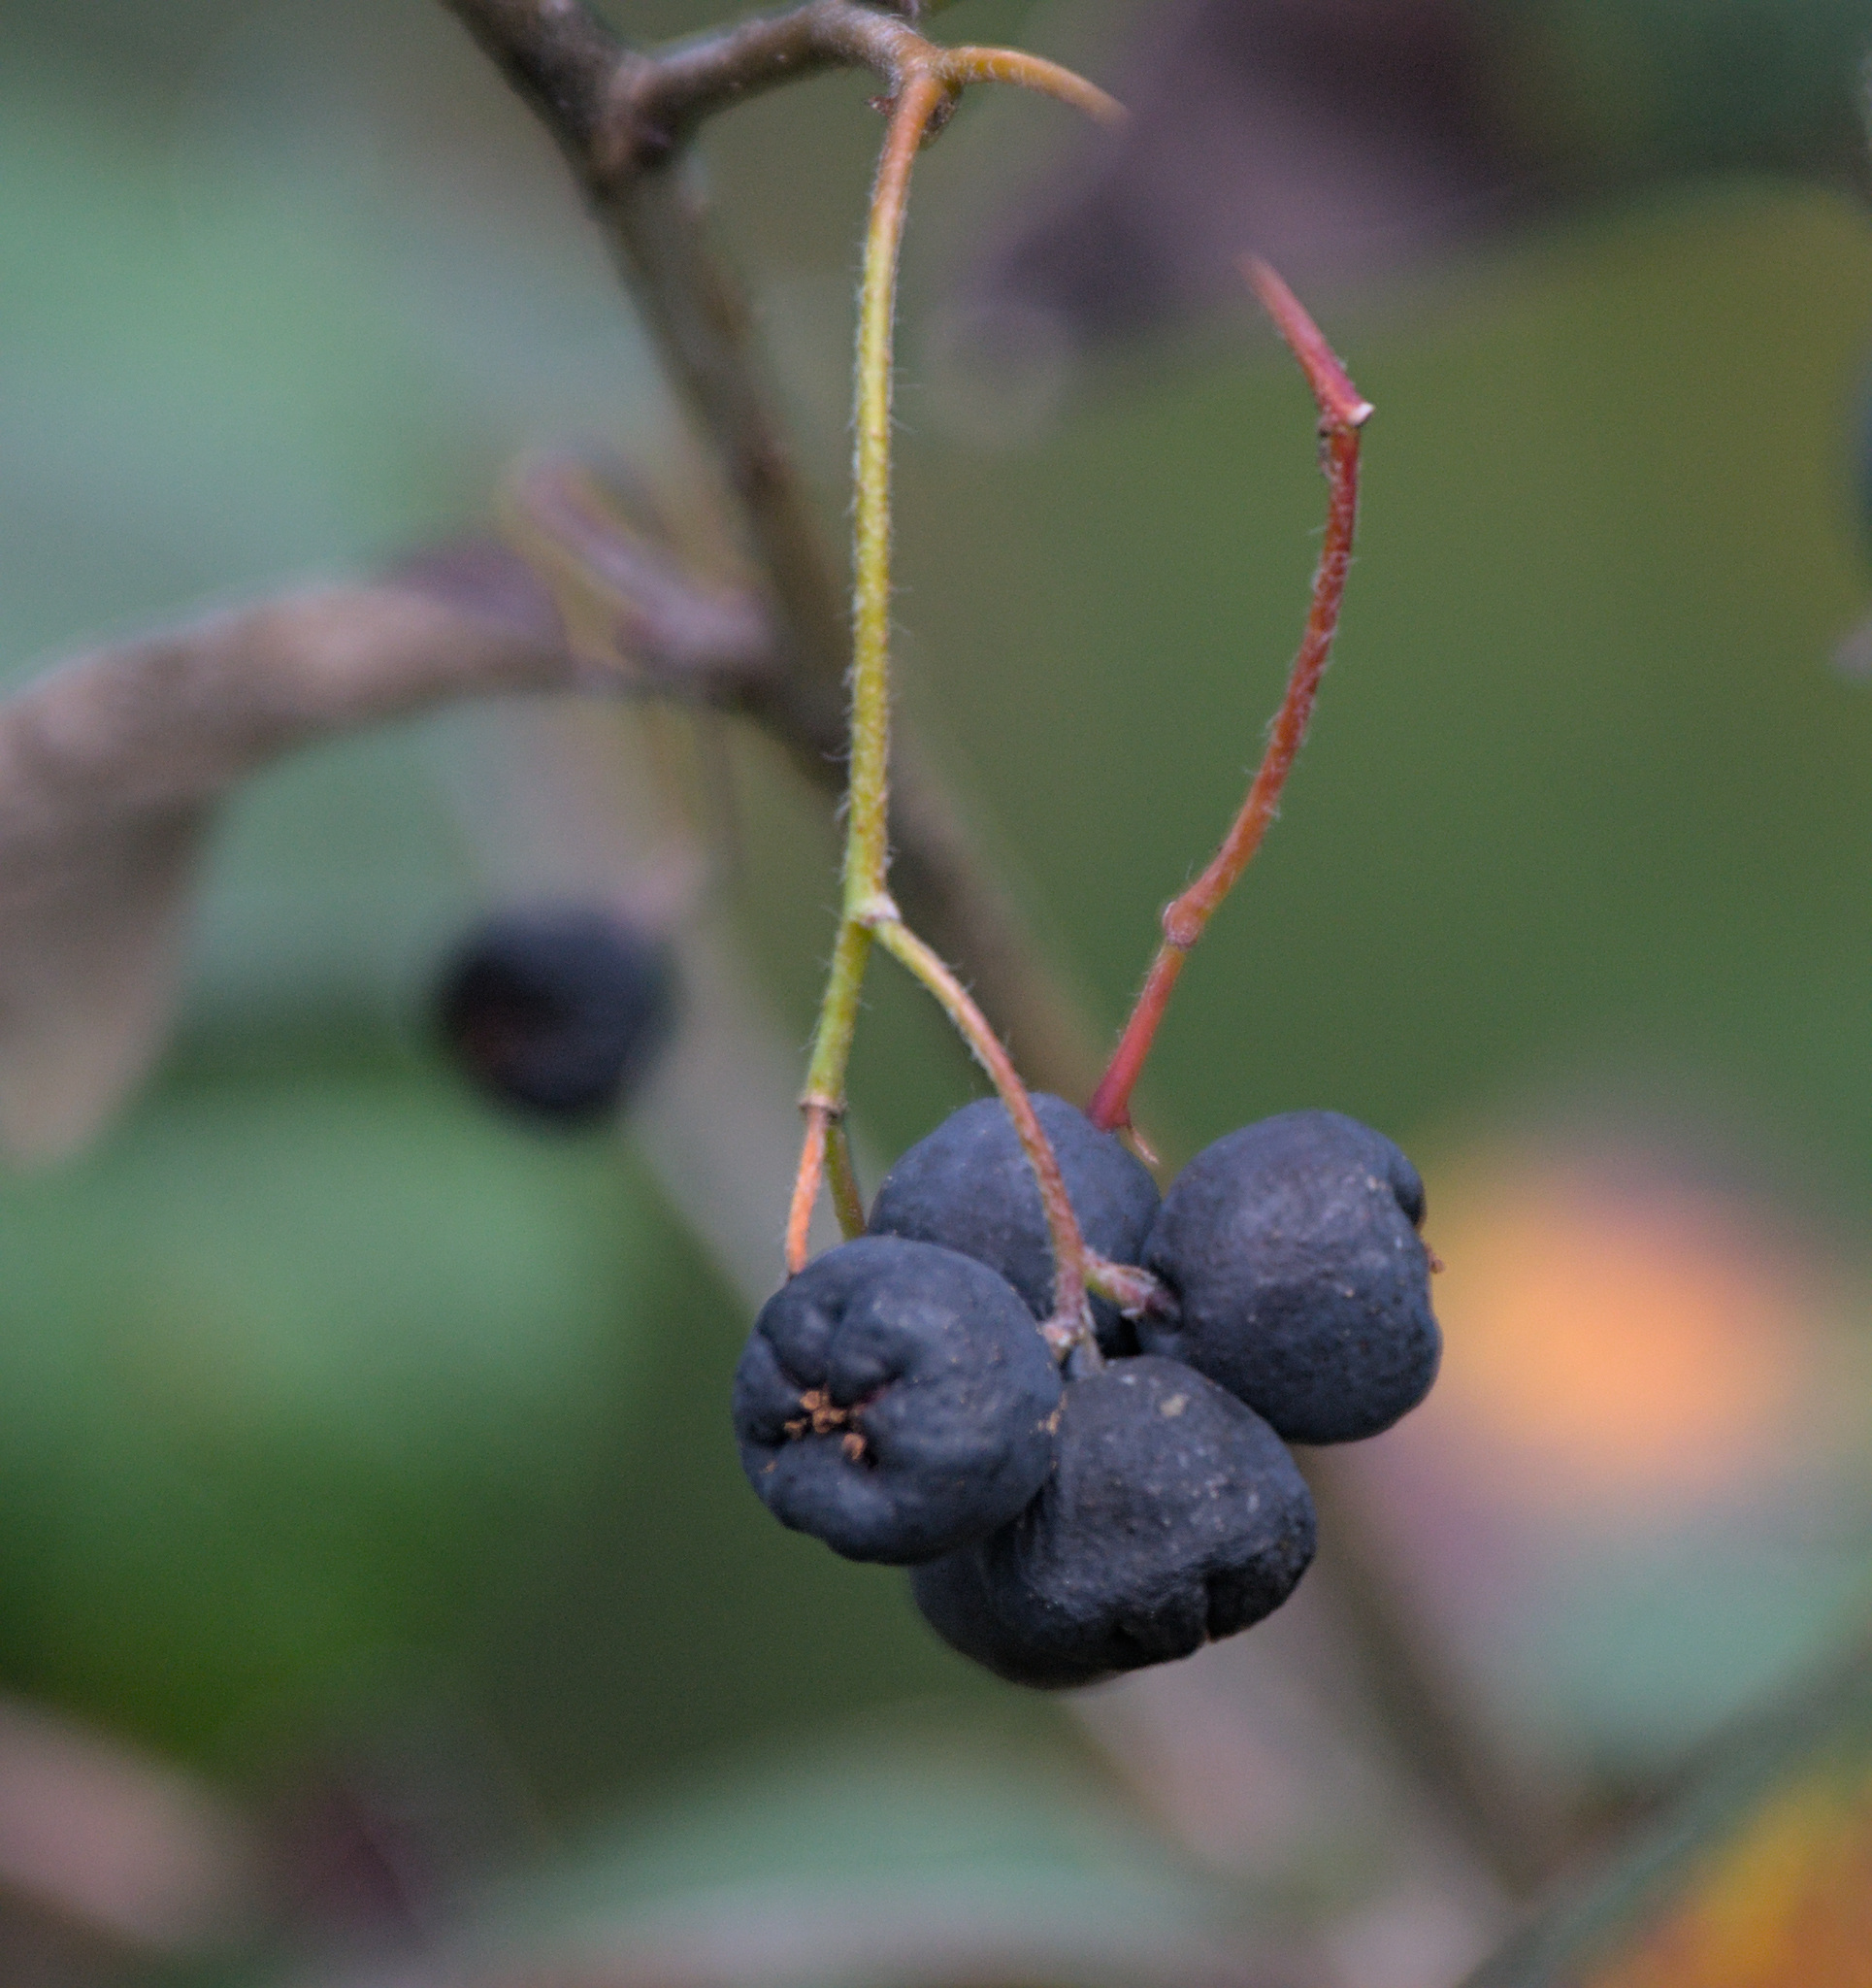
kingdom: Plantae
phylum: Tracheophyta
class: Magnoliopsida
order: Rosales
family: Rosaceae
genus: Cotoneaster
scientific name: Cotoneaster melanocarpus
